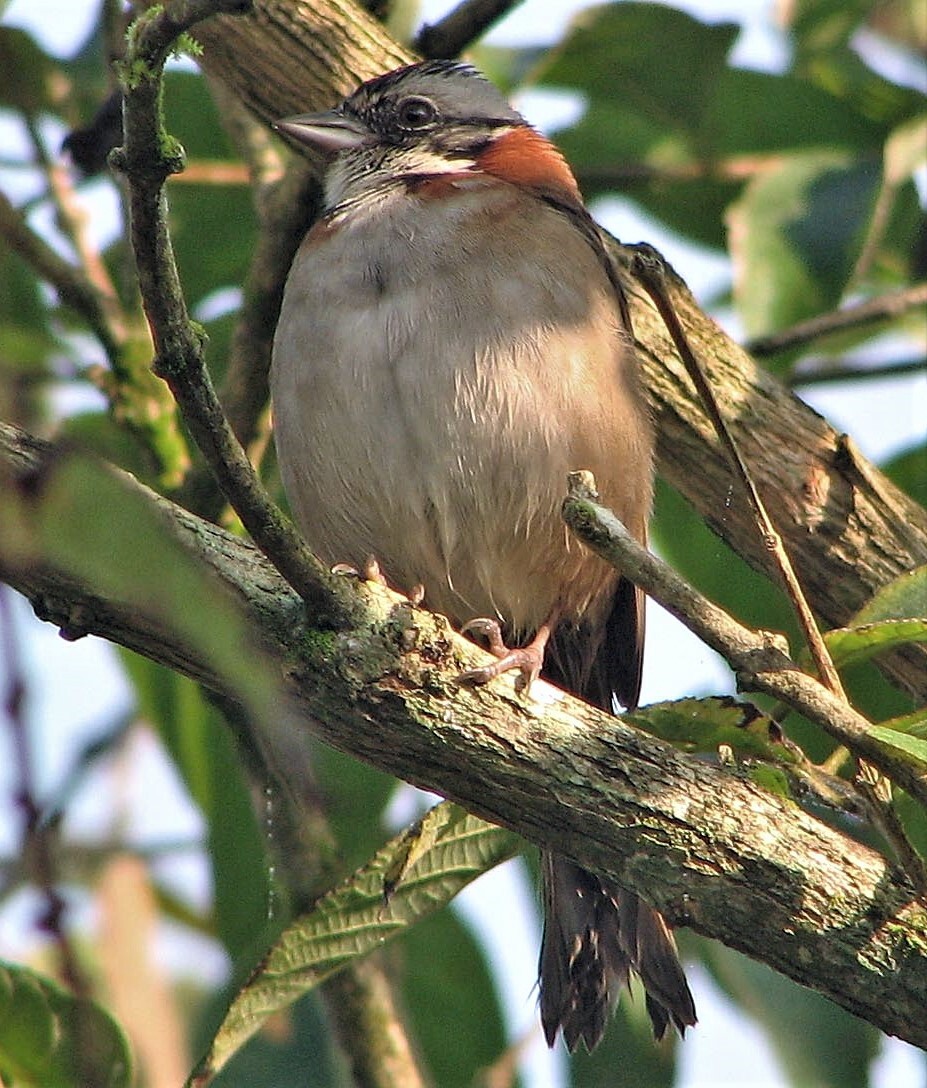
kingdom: Animalia
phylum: Chordata
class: Aves
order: Passeriformes
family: Passerellidae
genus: Zonotrichia
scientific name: Zonotrichia capensis
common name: Rufous-collared sparrow
